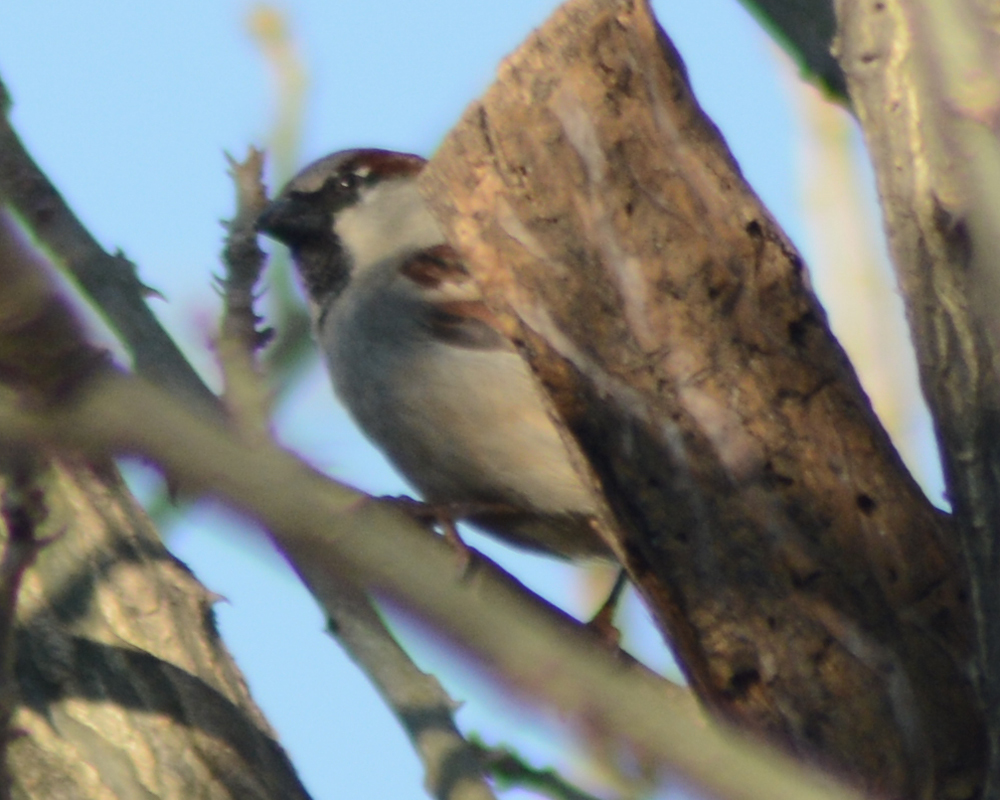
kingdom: Animalia
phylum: Chordata
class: Aves
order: Passeriformes
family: Passeridae
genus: Passer
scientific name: Passer domesticus
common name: House sparrow
